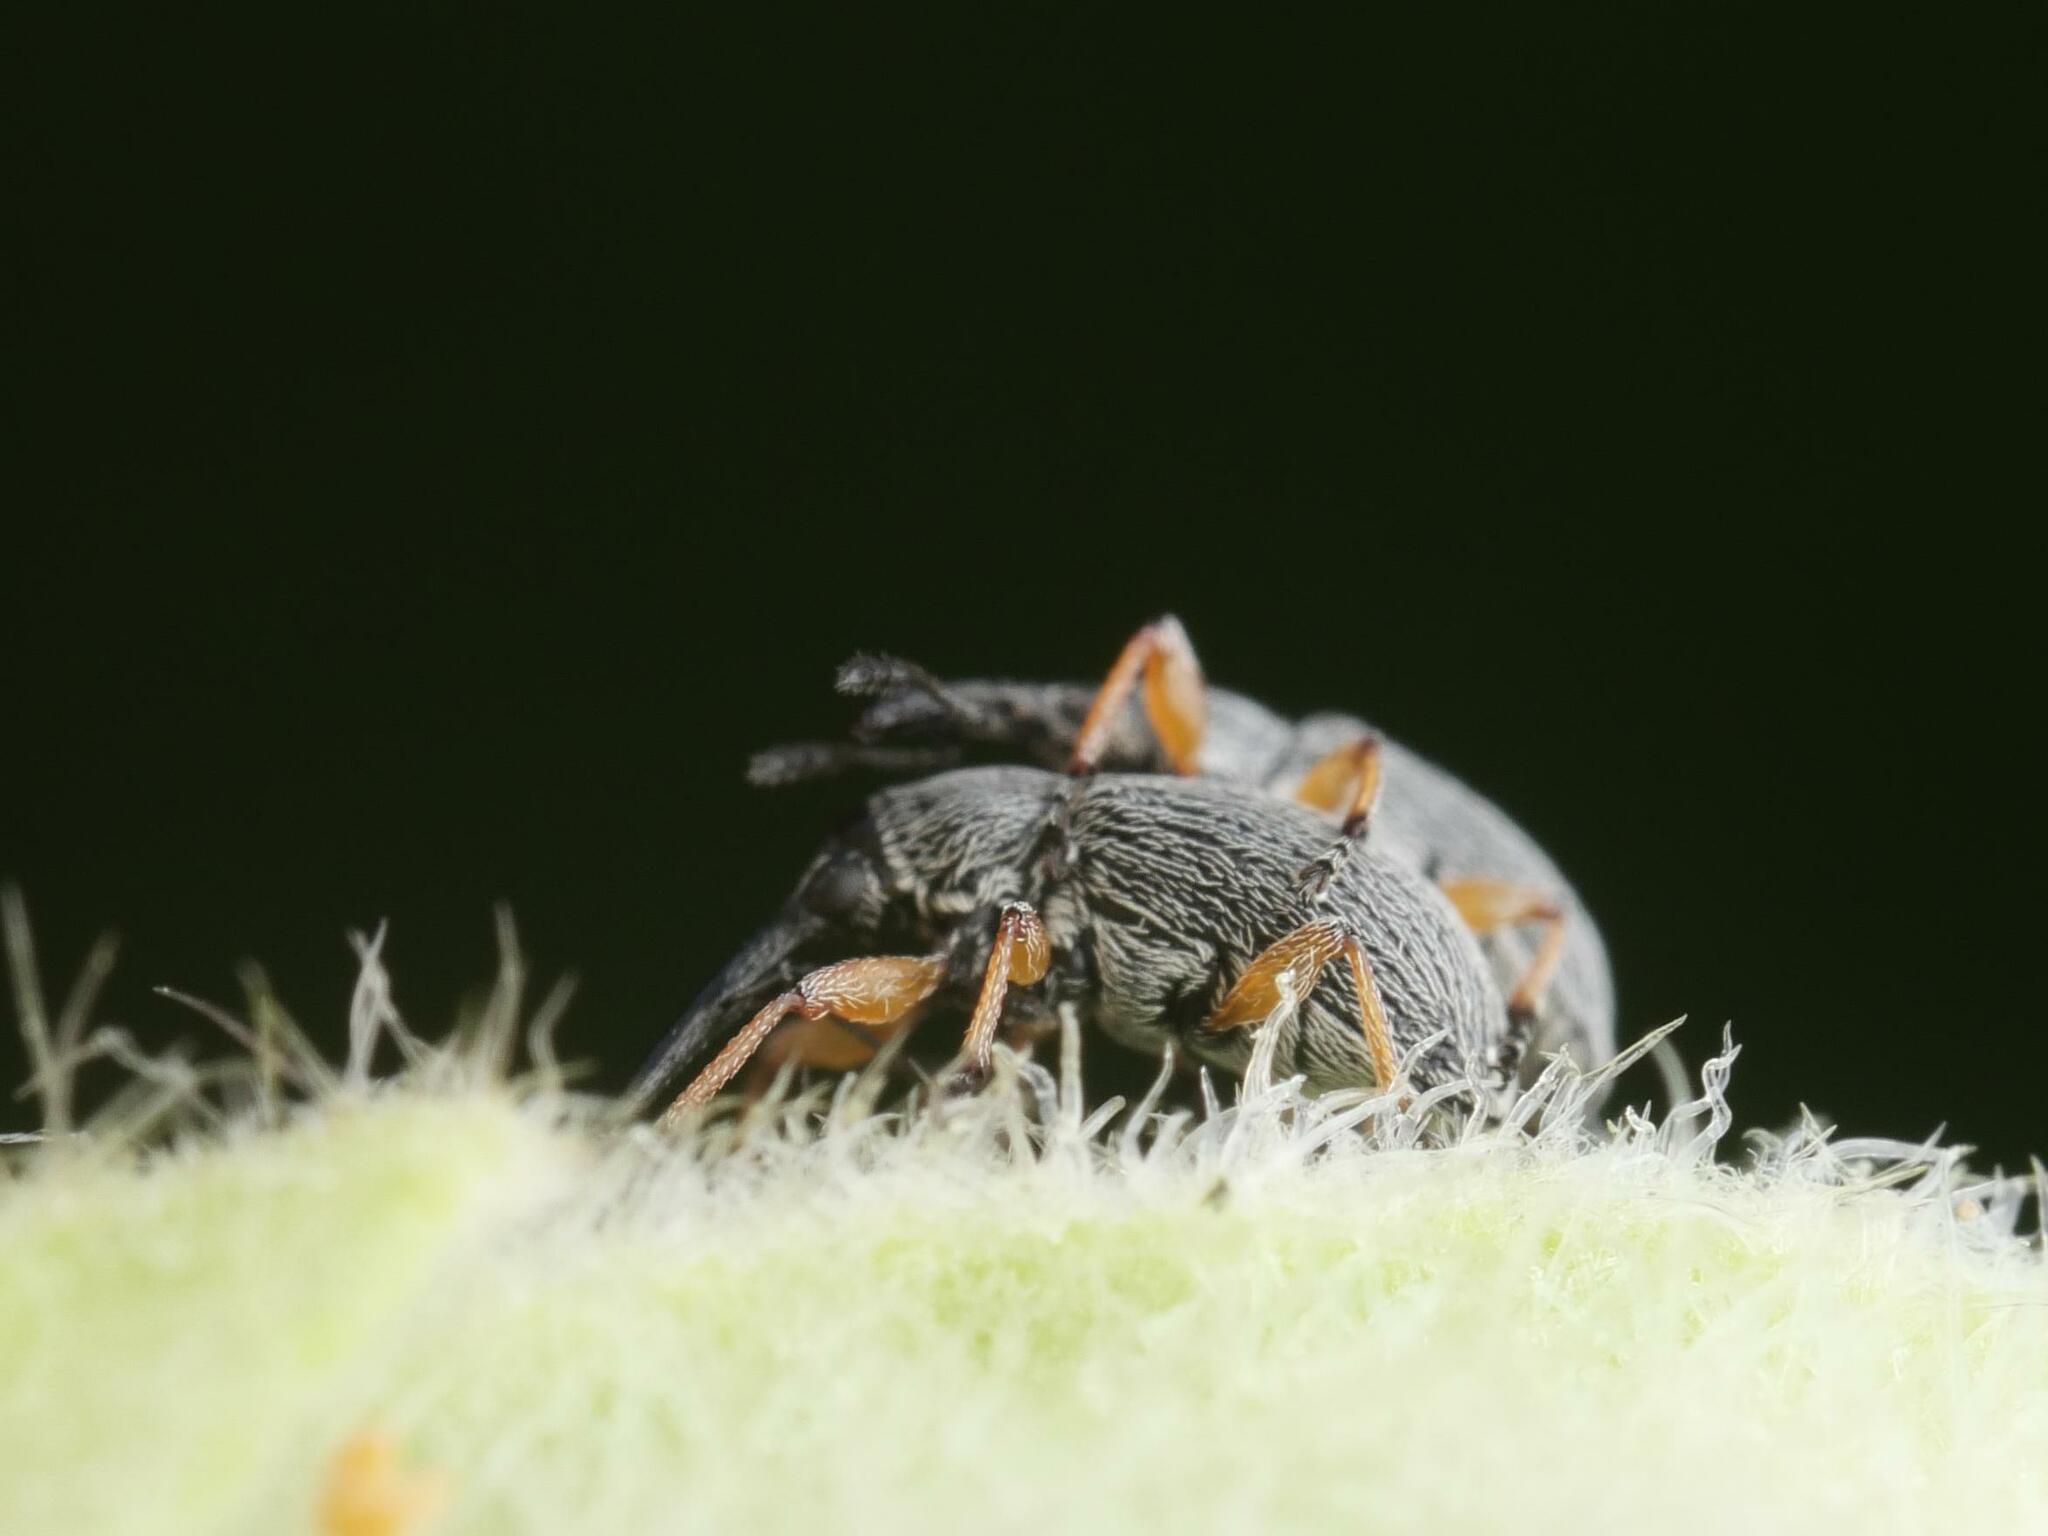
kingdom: Animalia
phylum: Arthropoda
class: Insecta
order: Coleoptera
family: Brentidae
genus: Rhopalapion
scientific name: Rhopalapion longirostre
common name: Hollyhock weevil
